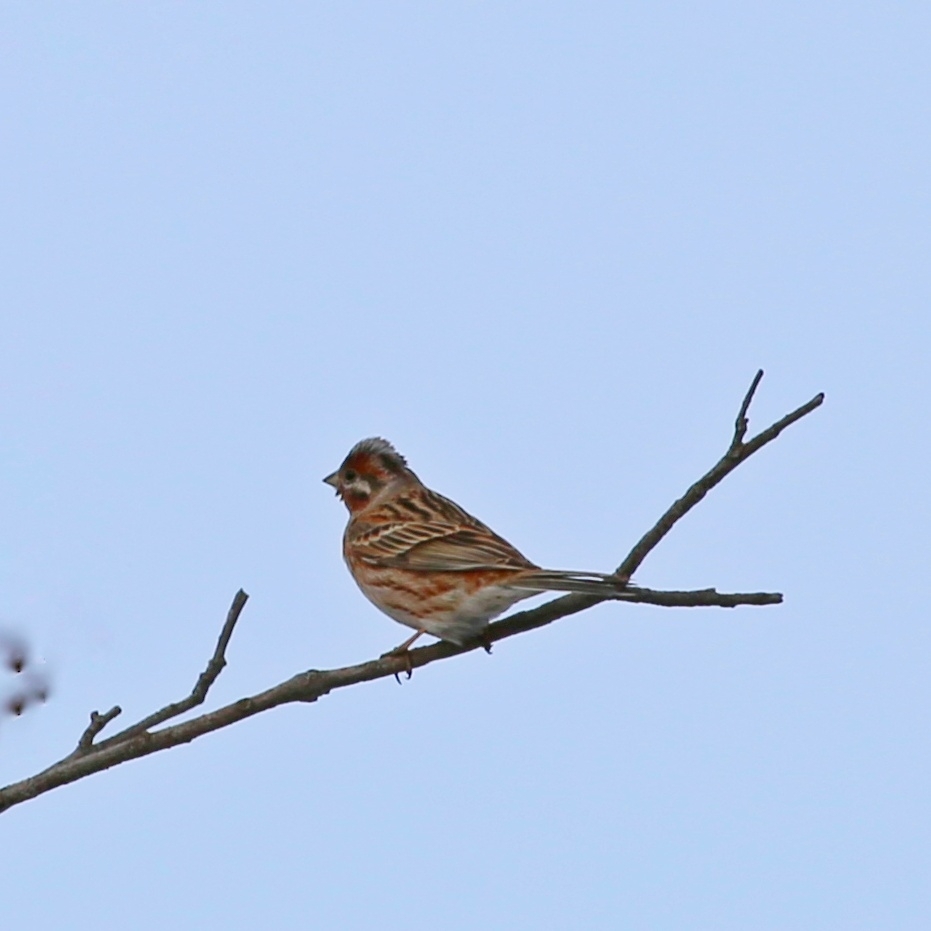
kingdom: Animalia
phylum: Chordata
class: Aves
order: Passeriformes
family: Emberizidae
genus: Emberiza
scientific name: Emberiza leucocephalos
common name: Pine bunting
